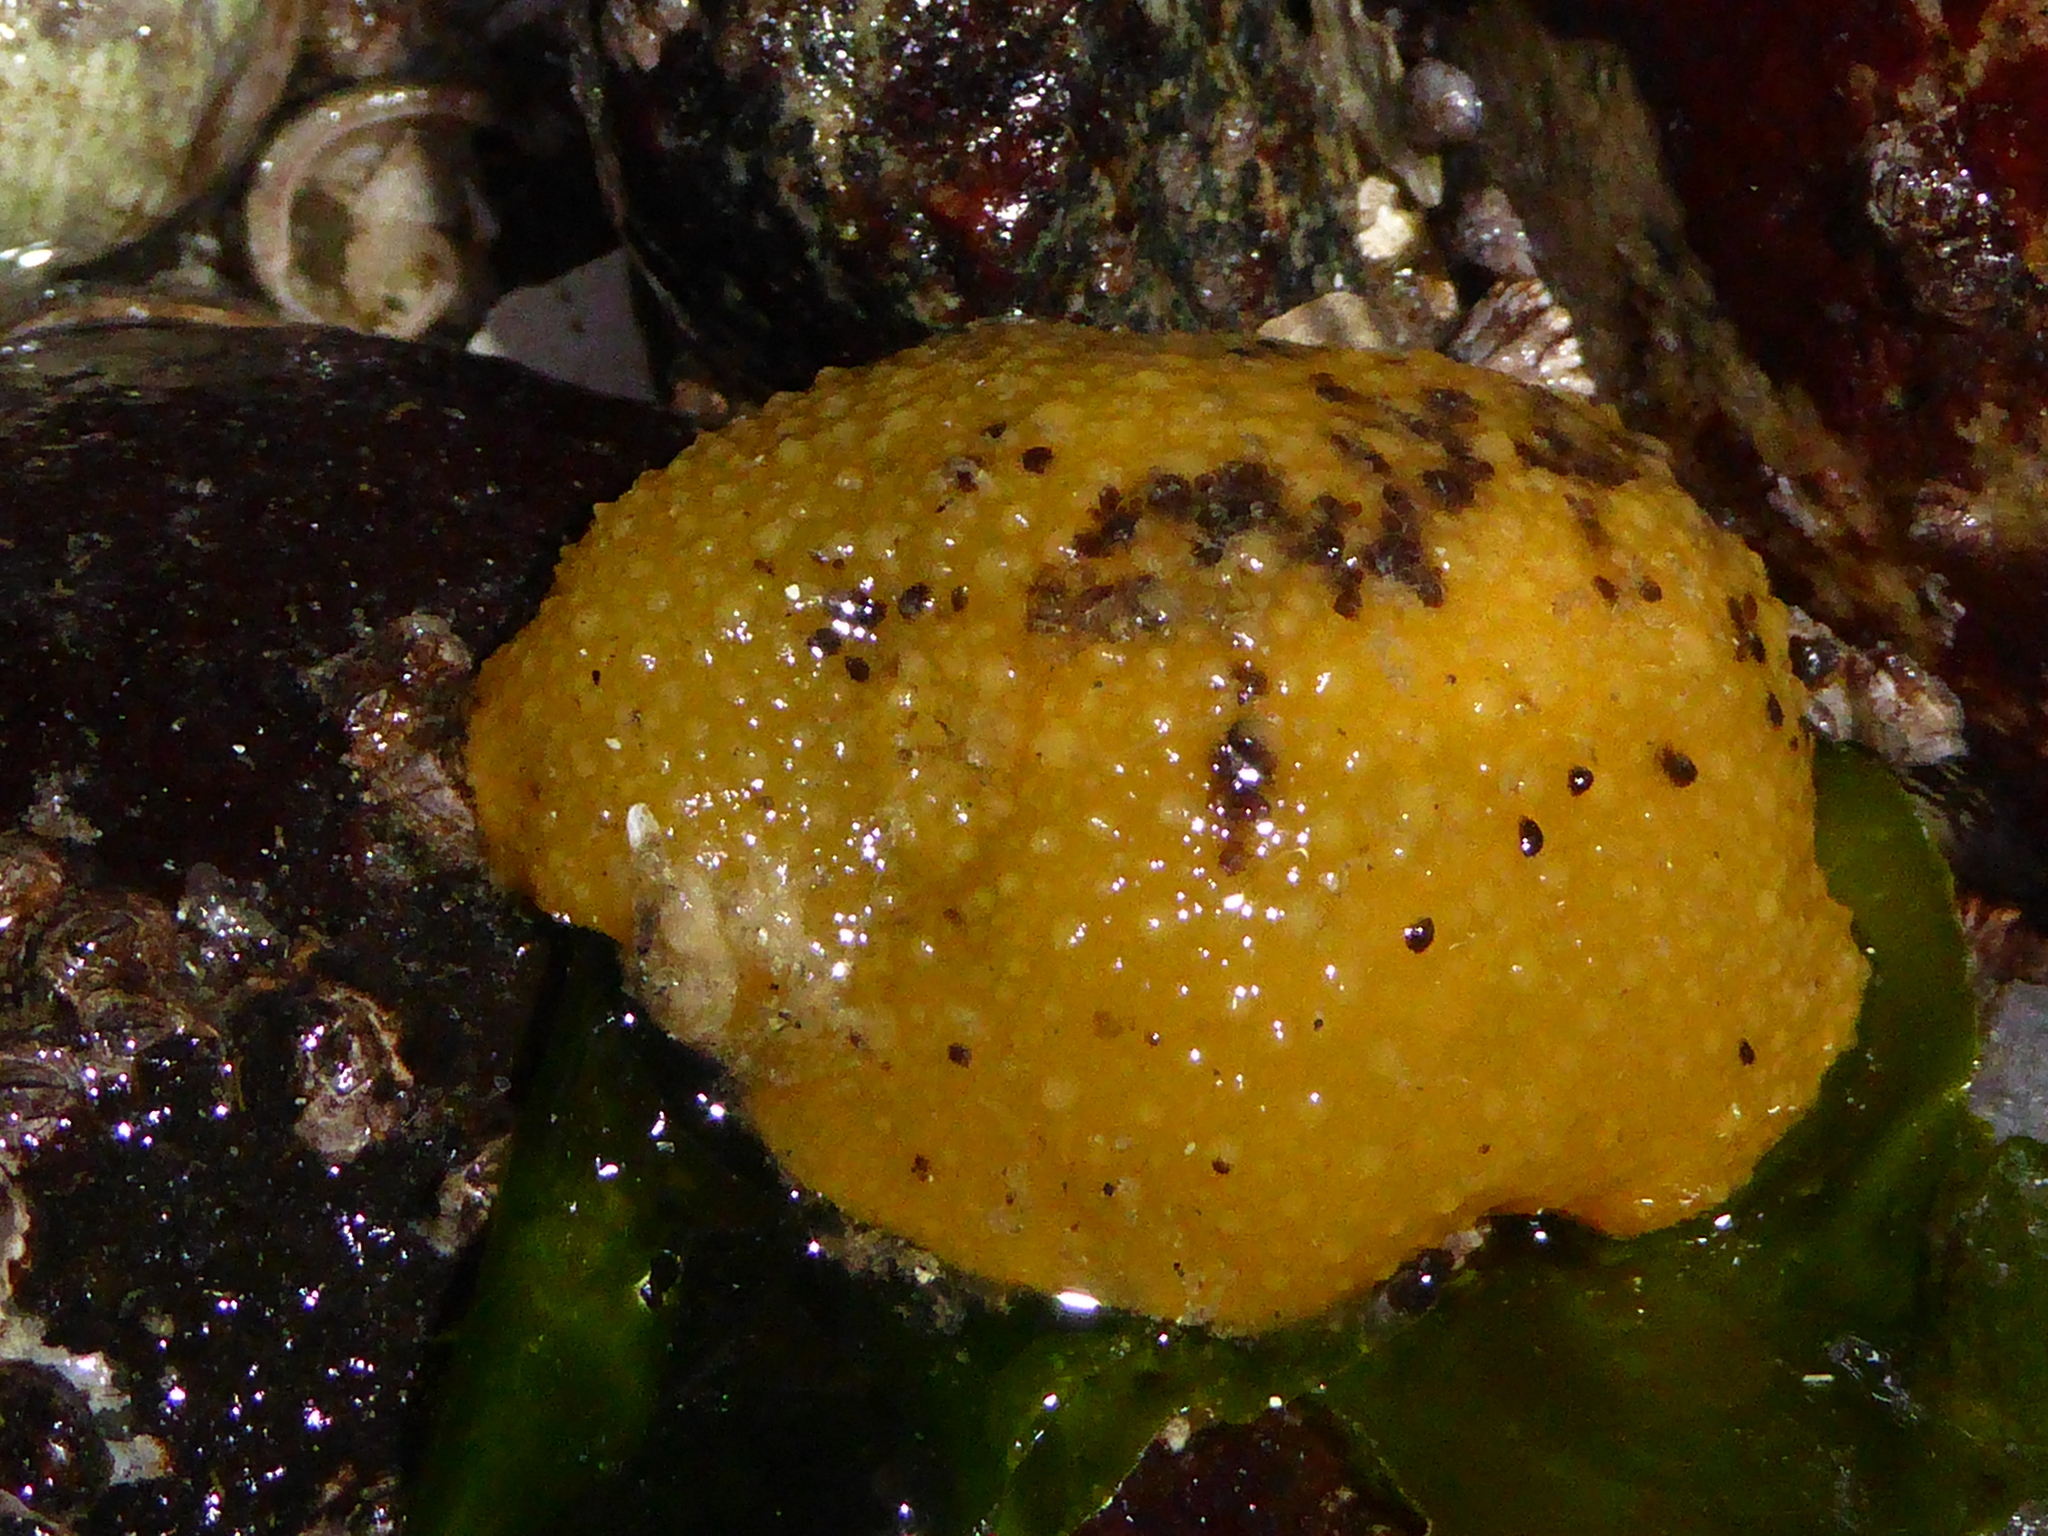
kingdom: Animalia
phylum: Mollusca
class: Gastropoda
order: Nudibranchia
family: Dorididae
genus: Doris
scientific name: Doris montereyensis
